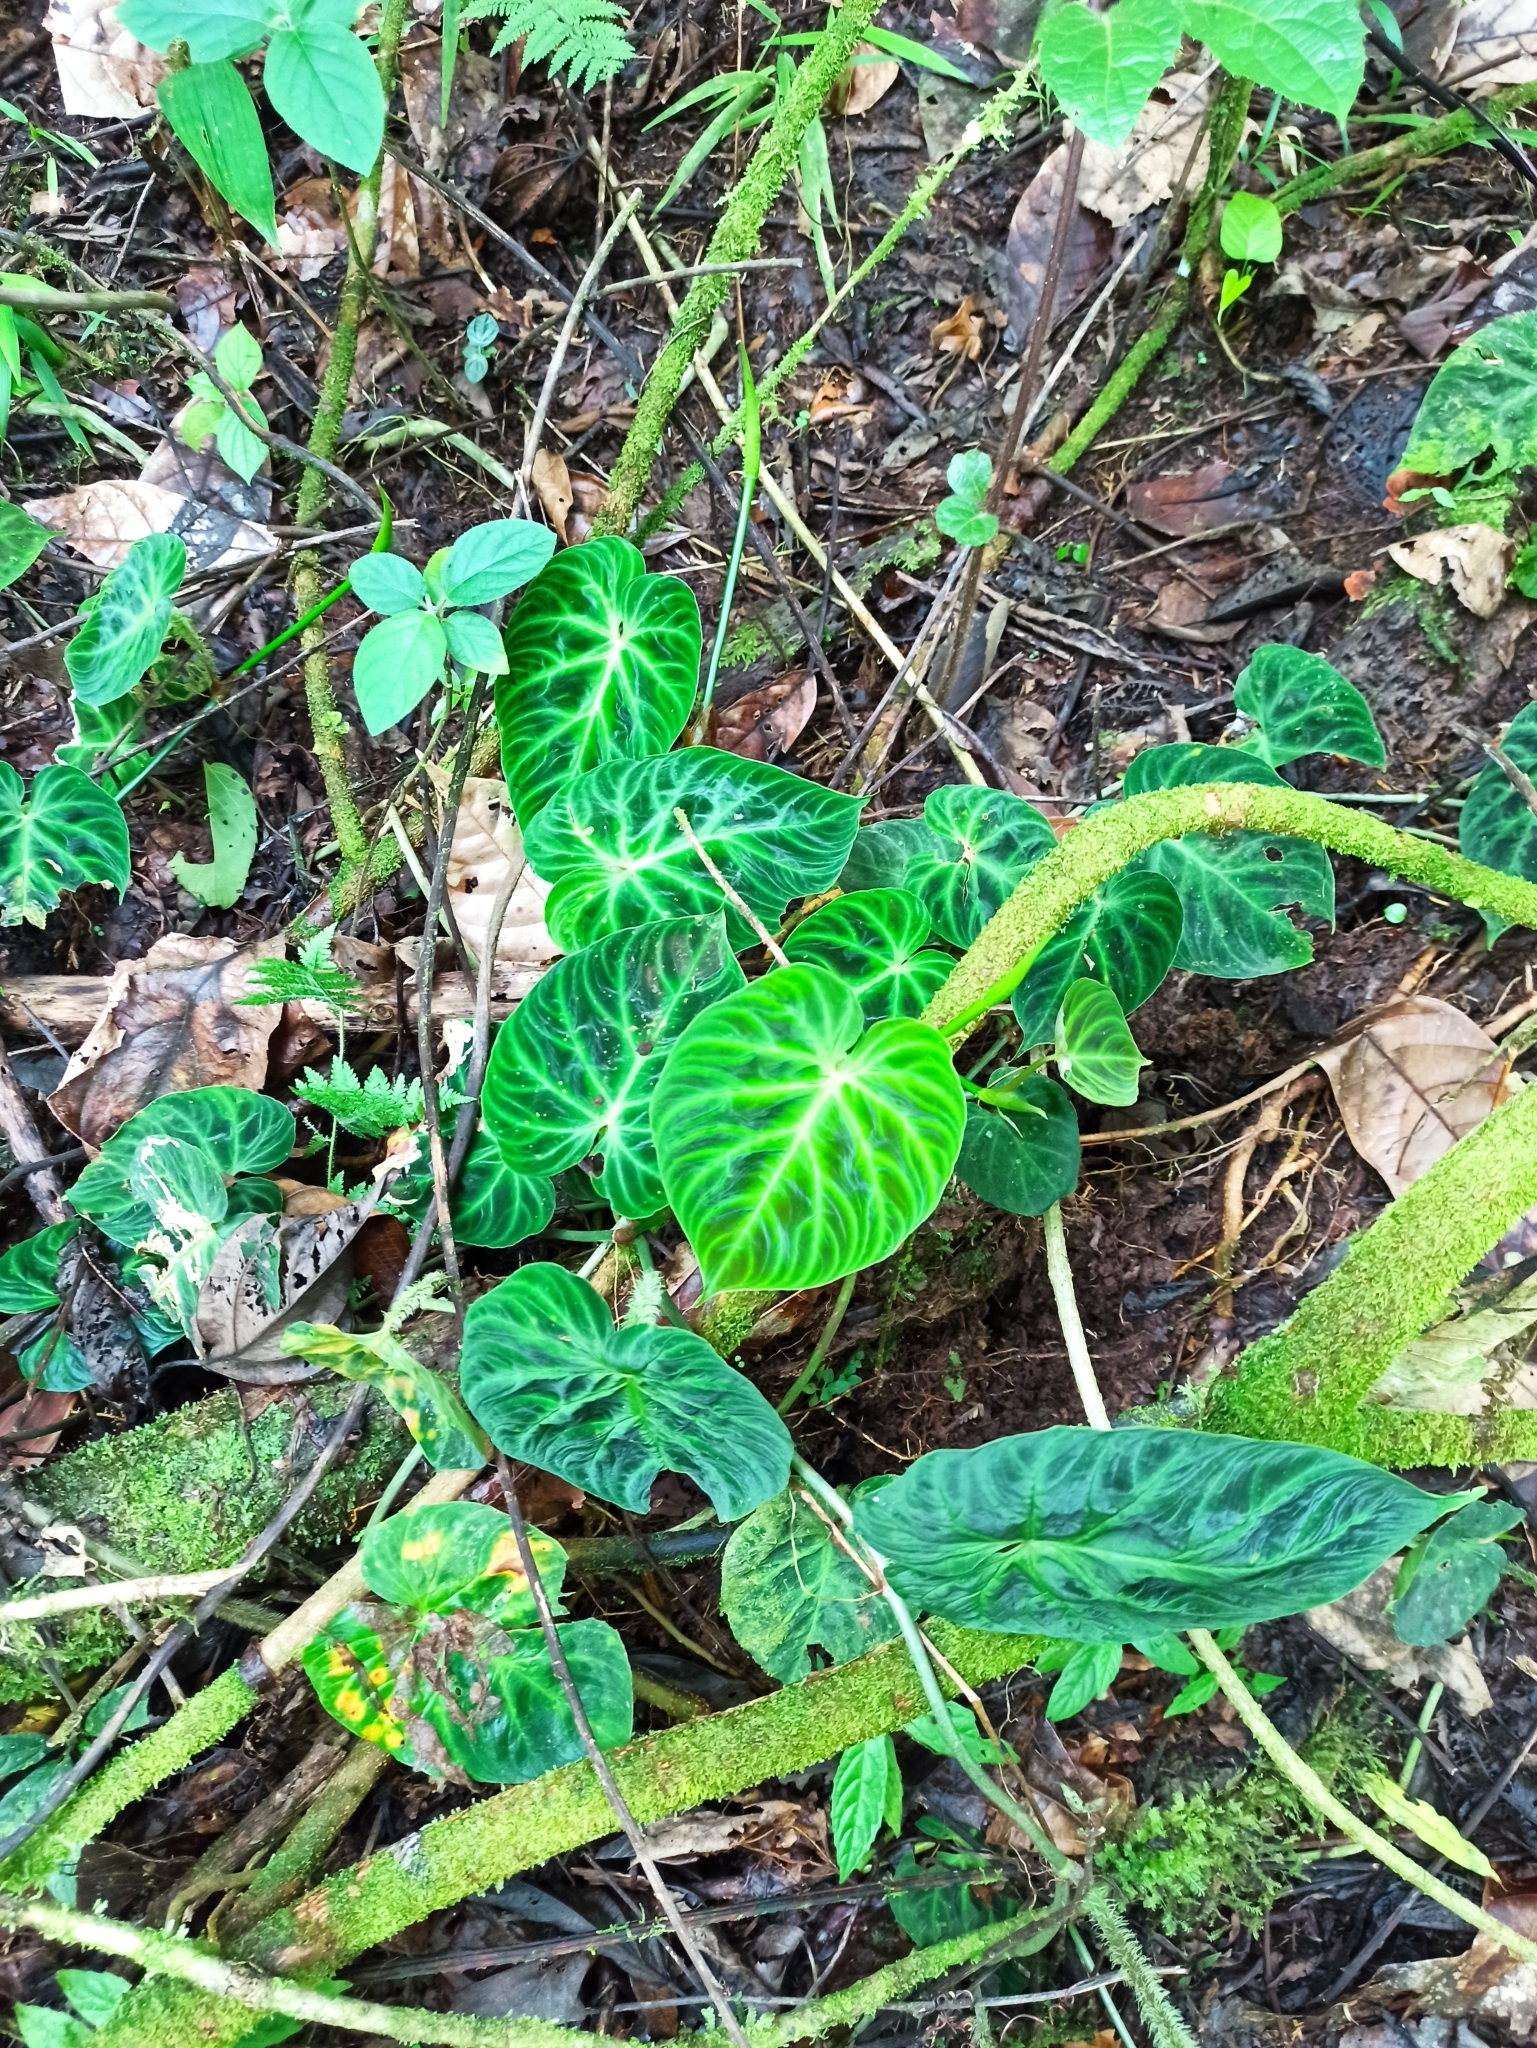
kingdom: Plantae
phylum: Tracheophyta
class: Liliopsida
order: Alismatales
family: Araceae
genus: Philodendron
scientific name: Philodendron verrucosum
